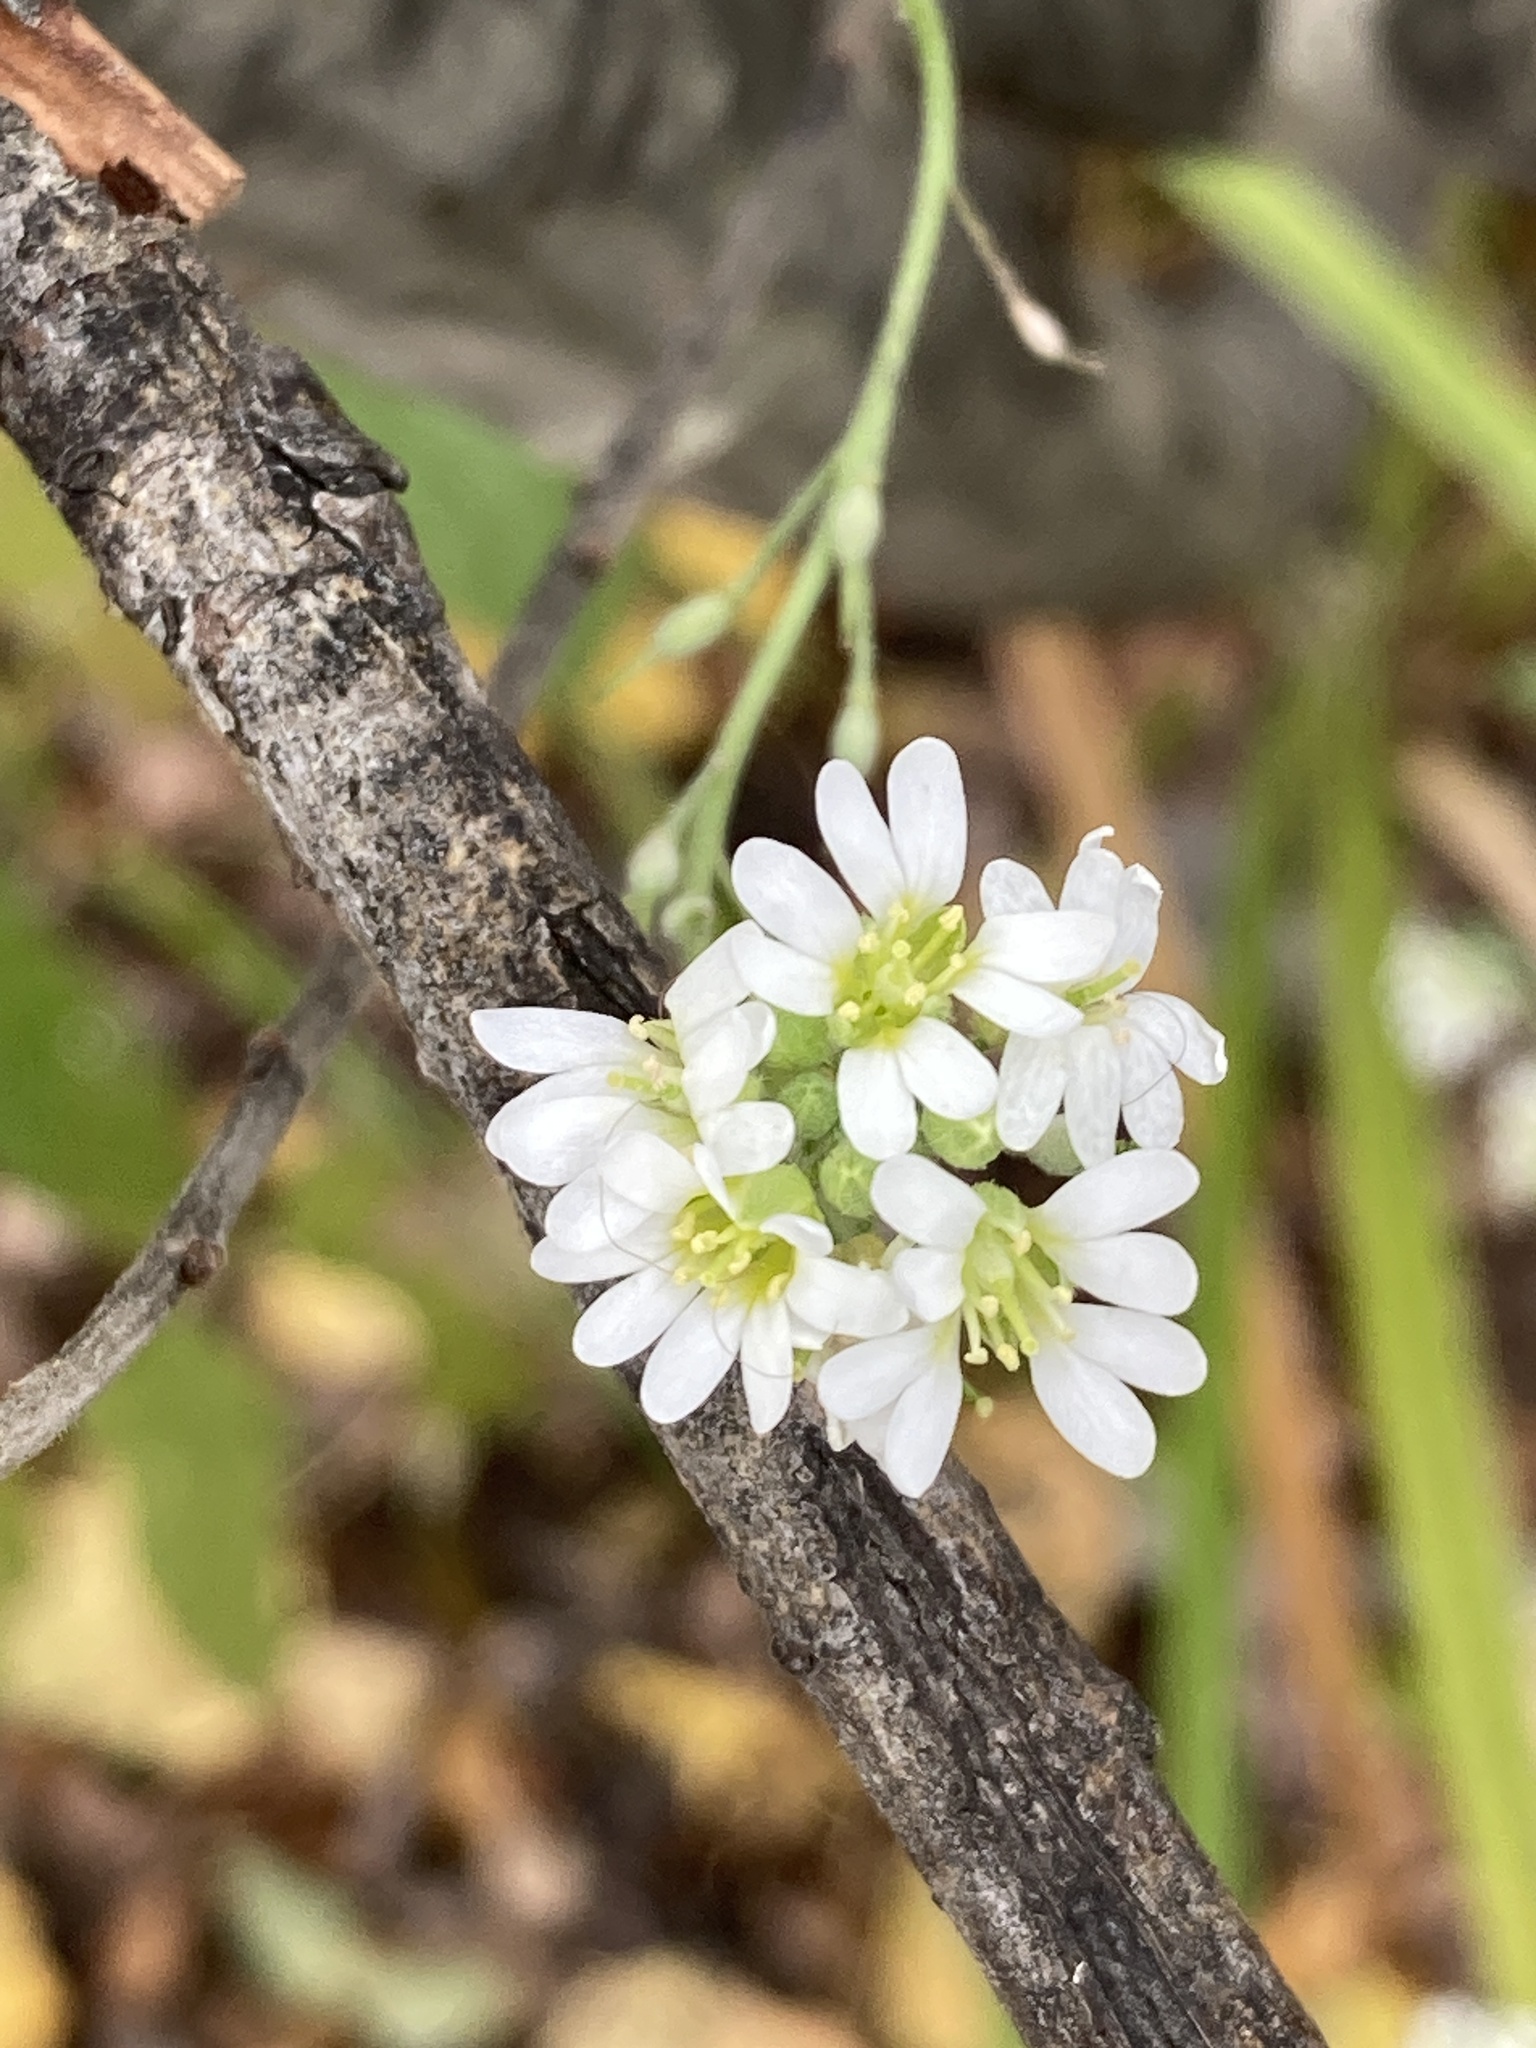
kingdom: Plantae
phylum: Tracheophyta
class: Magnoliopsida
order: Brassicales
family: Brassicaceae
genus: Berteroa
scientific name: Berteroa incana
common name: Hoary alison
